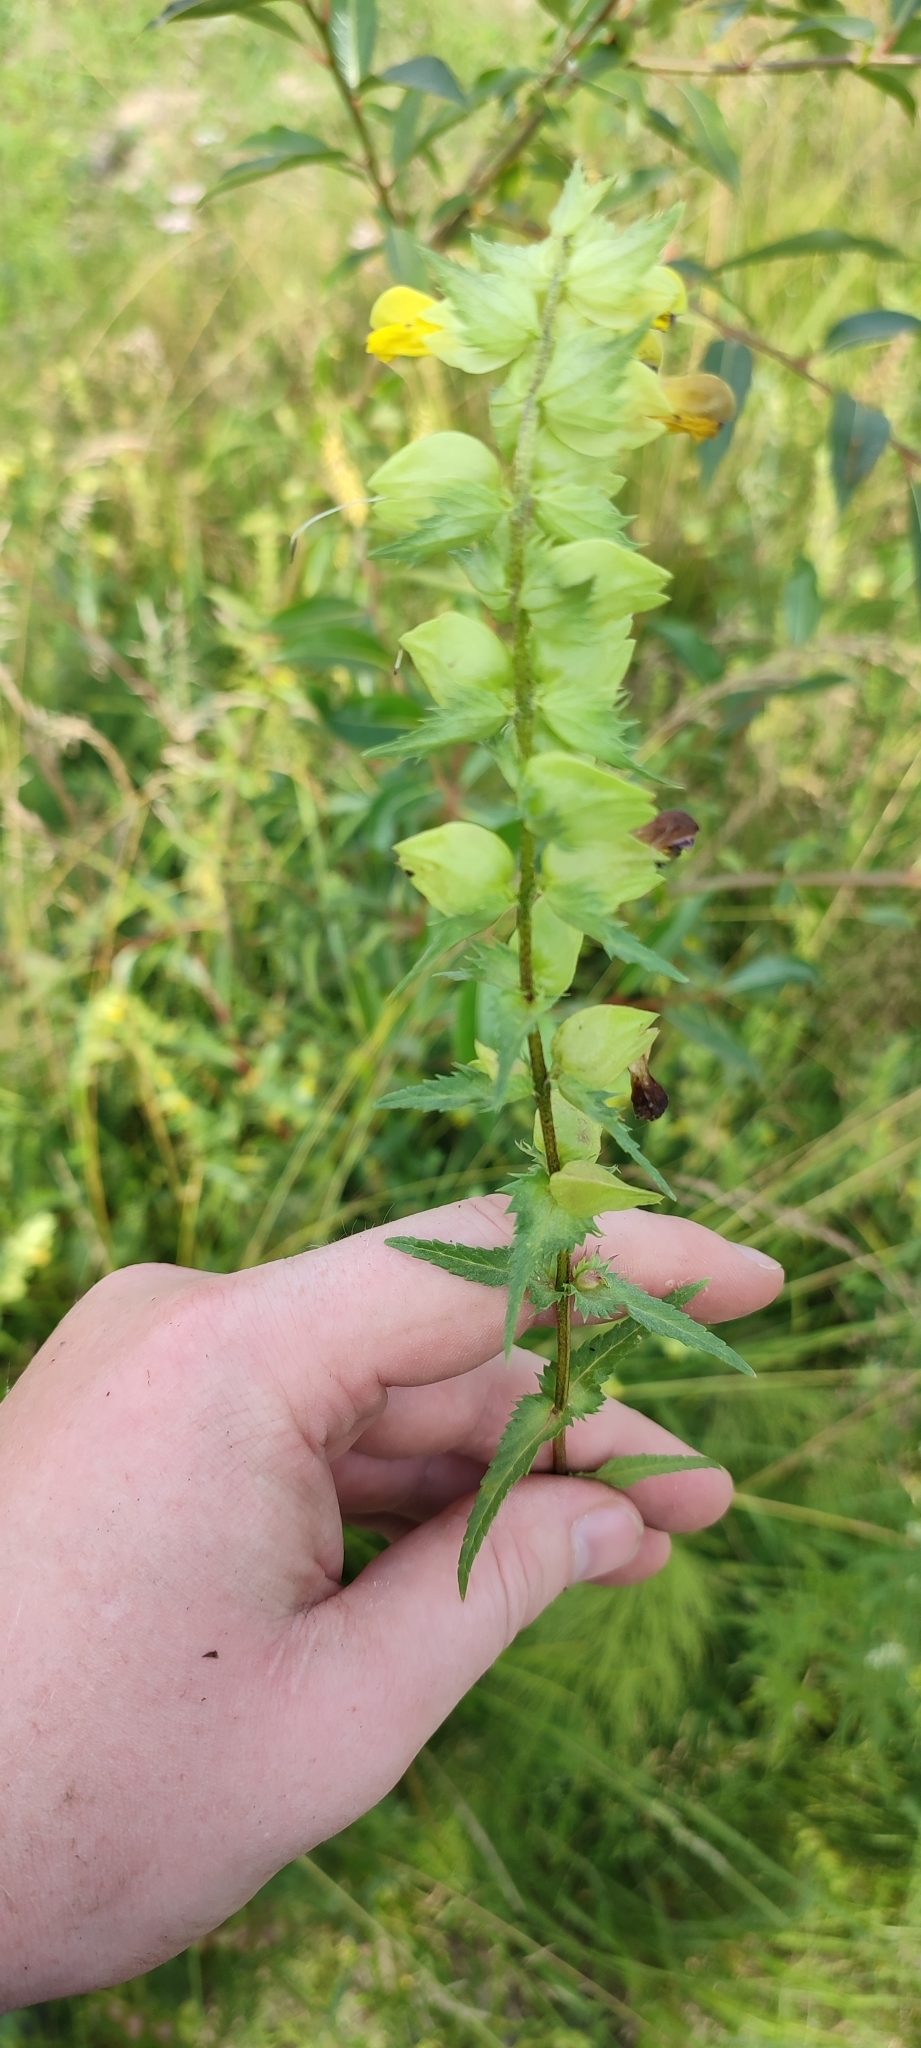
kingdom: Plantae
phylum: Tracheophyta
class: Magnoliopsida
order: Lamiales
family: Orobanchaceae
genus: Rhinanthus
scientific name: Rhinanthus serotinus
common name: Late-flowering yellow rattle
